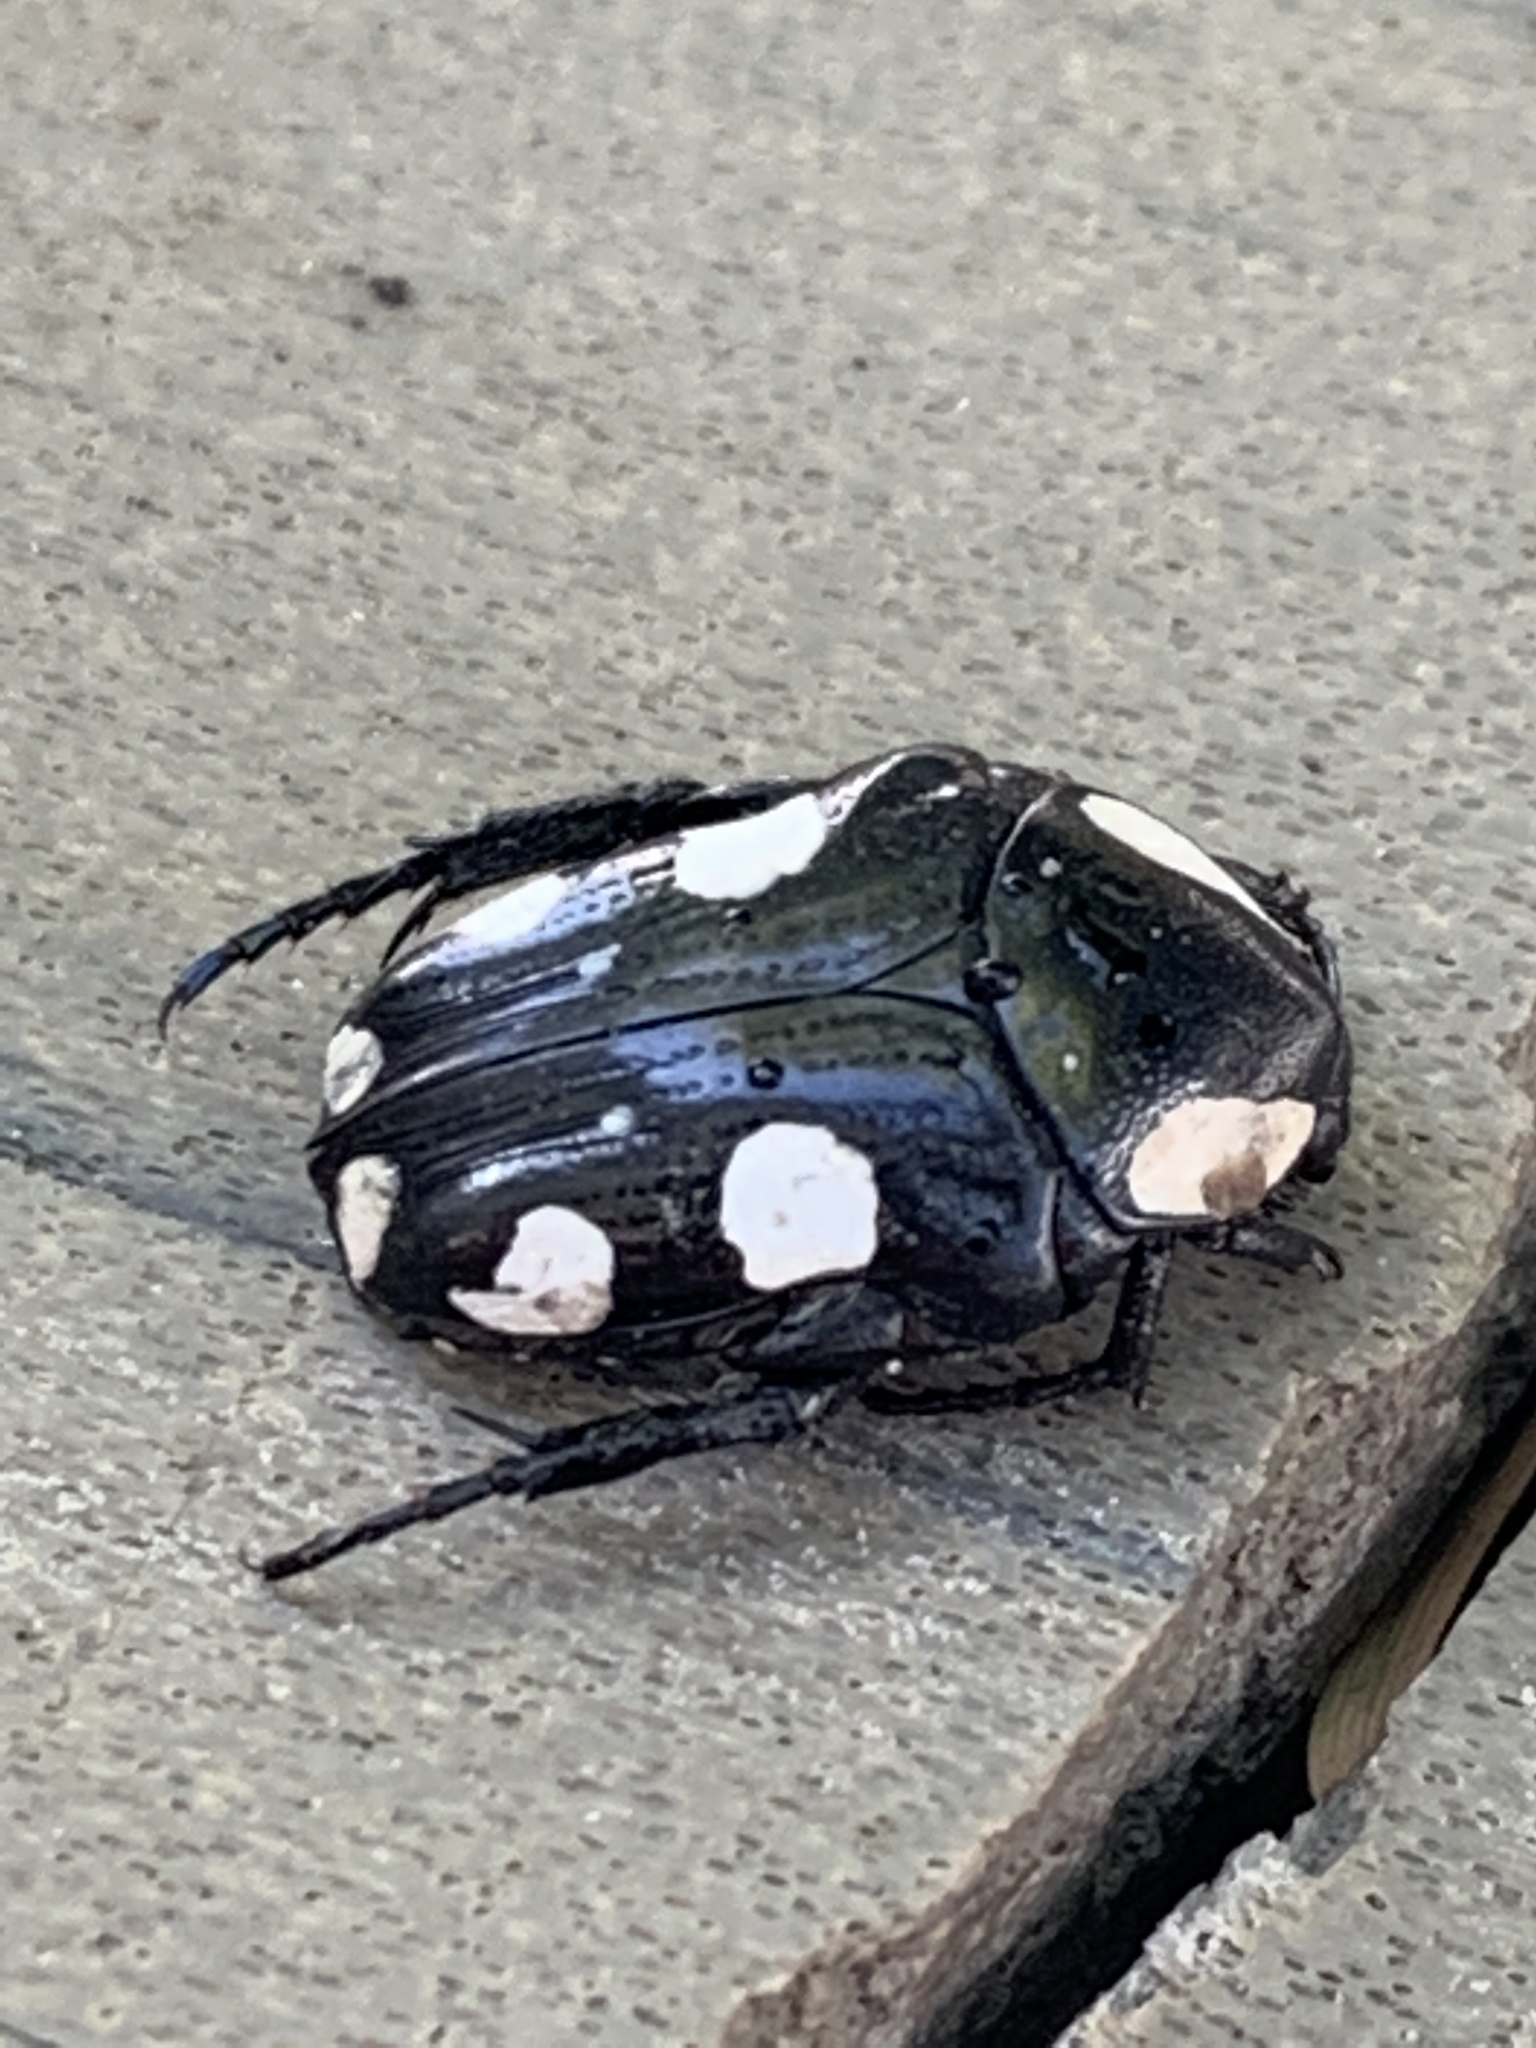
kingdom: Animalia
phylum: Arthropoda
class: Insecta
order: Coleoptera
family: Scarabaeidae
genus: Mausoleopsis
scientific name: Mausoleopsis amabilis
